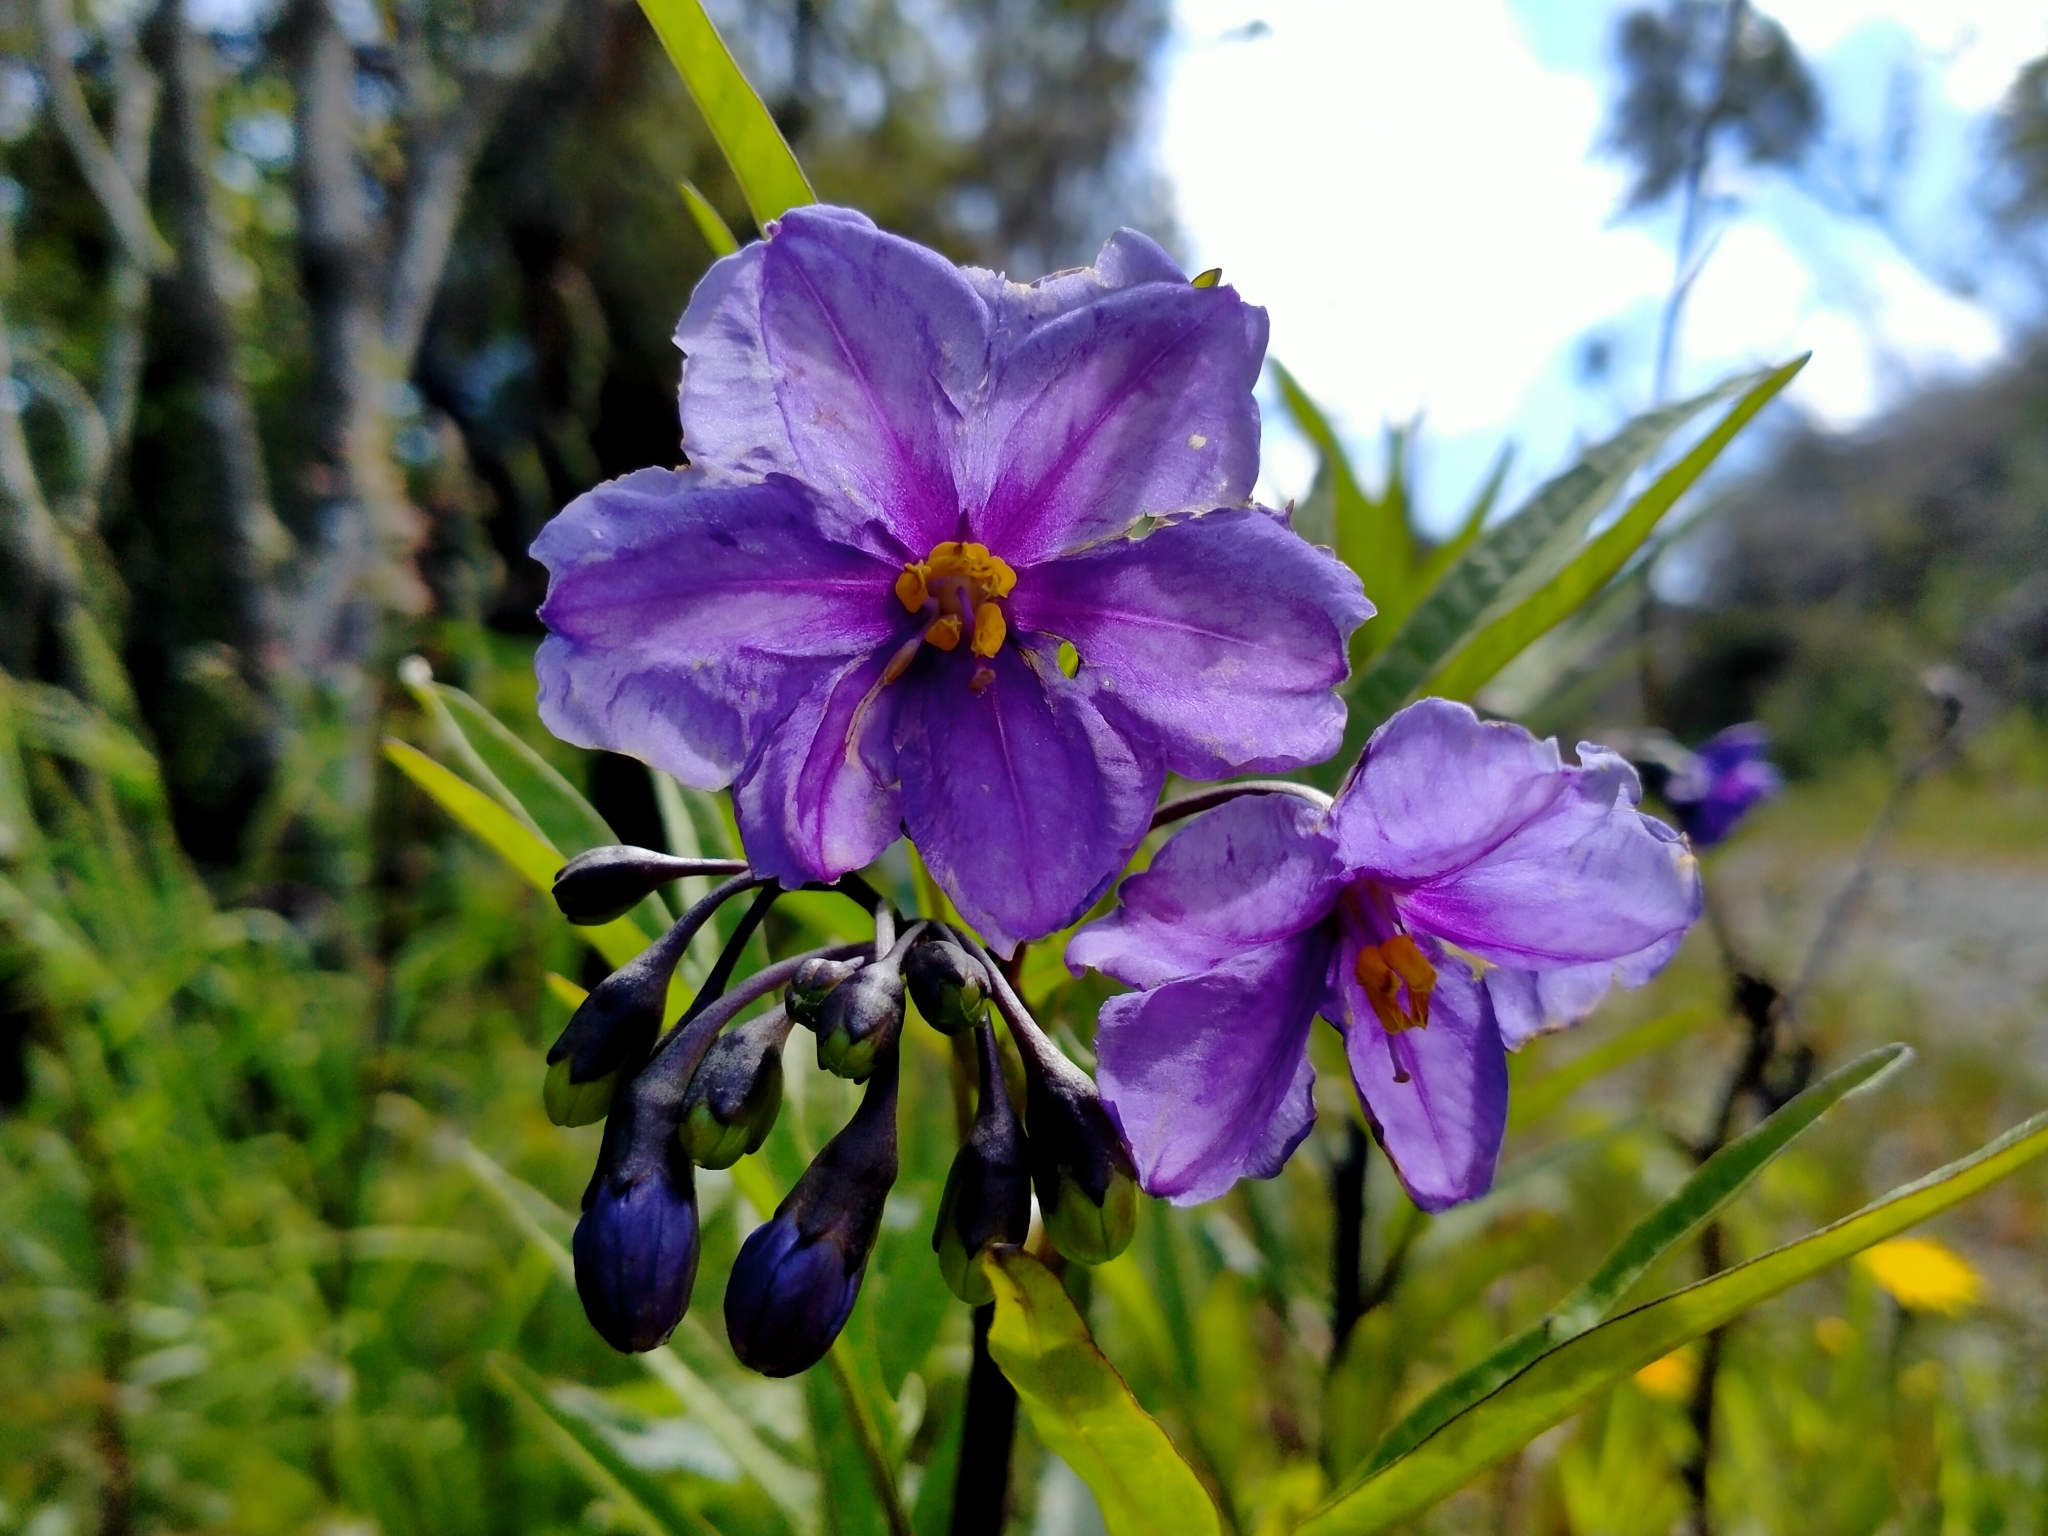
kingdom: Plantae
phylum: Tracheophyta
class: Magnoliopsida
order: Solanales
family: Solanaceae
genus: Solanum
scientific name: Solanum laciniatum
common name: Kangaroo-apple
